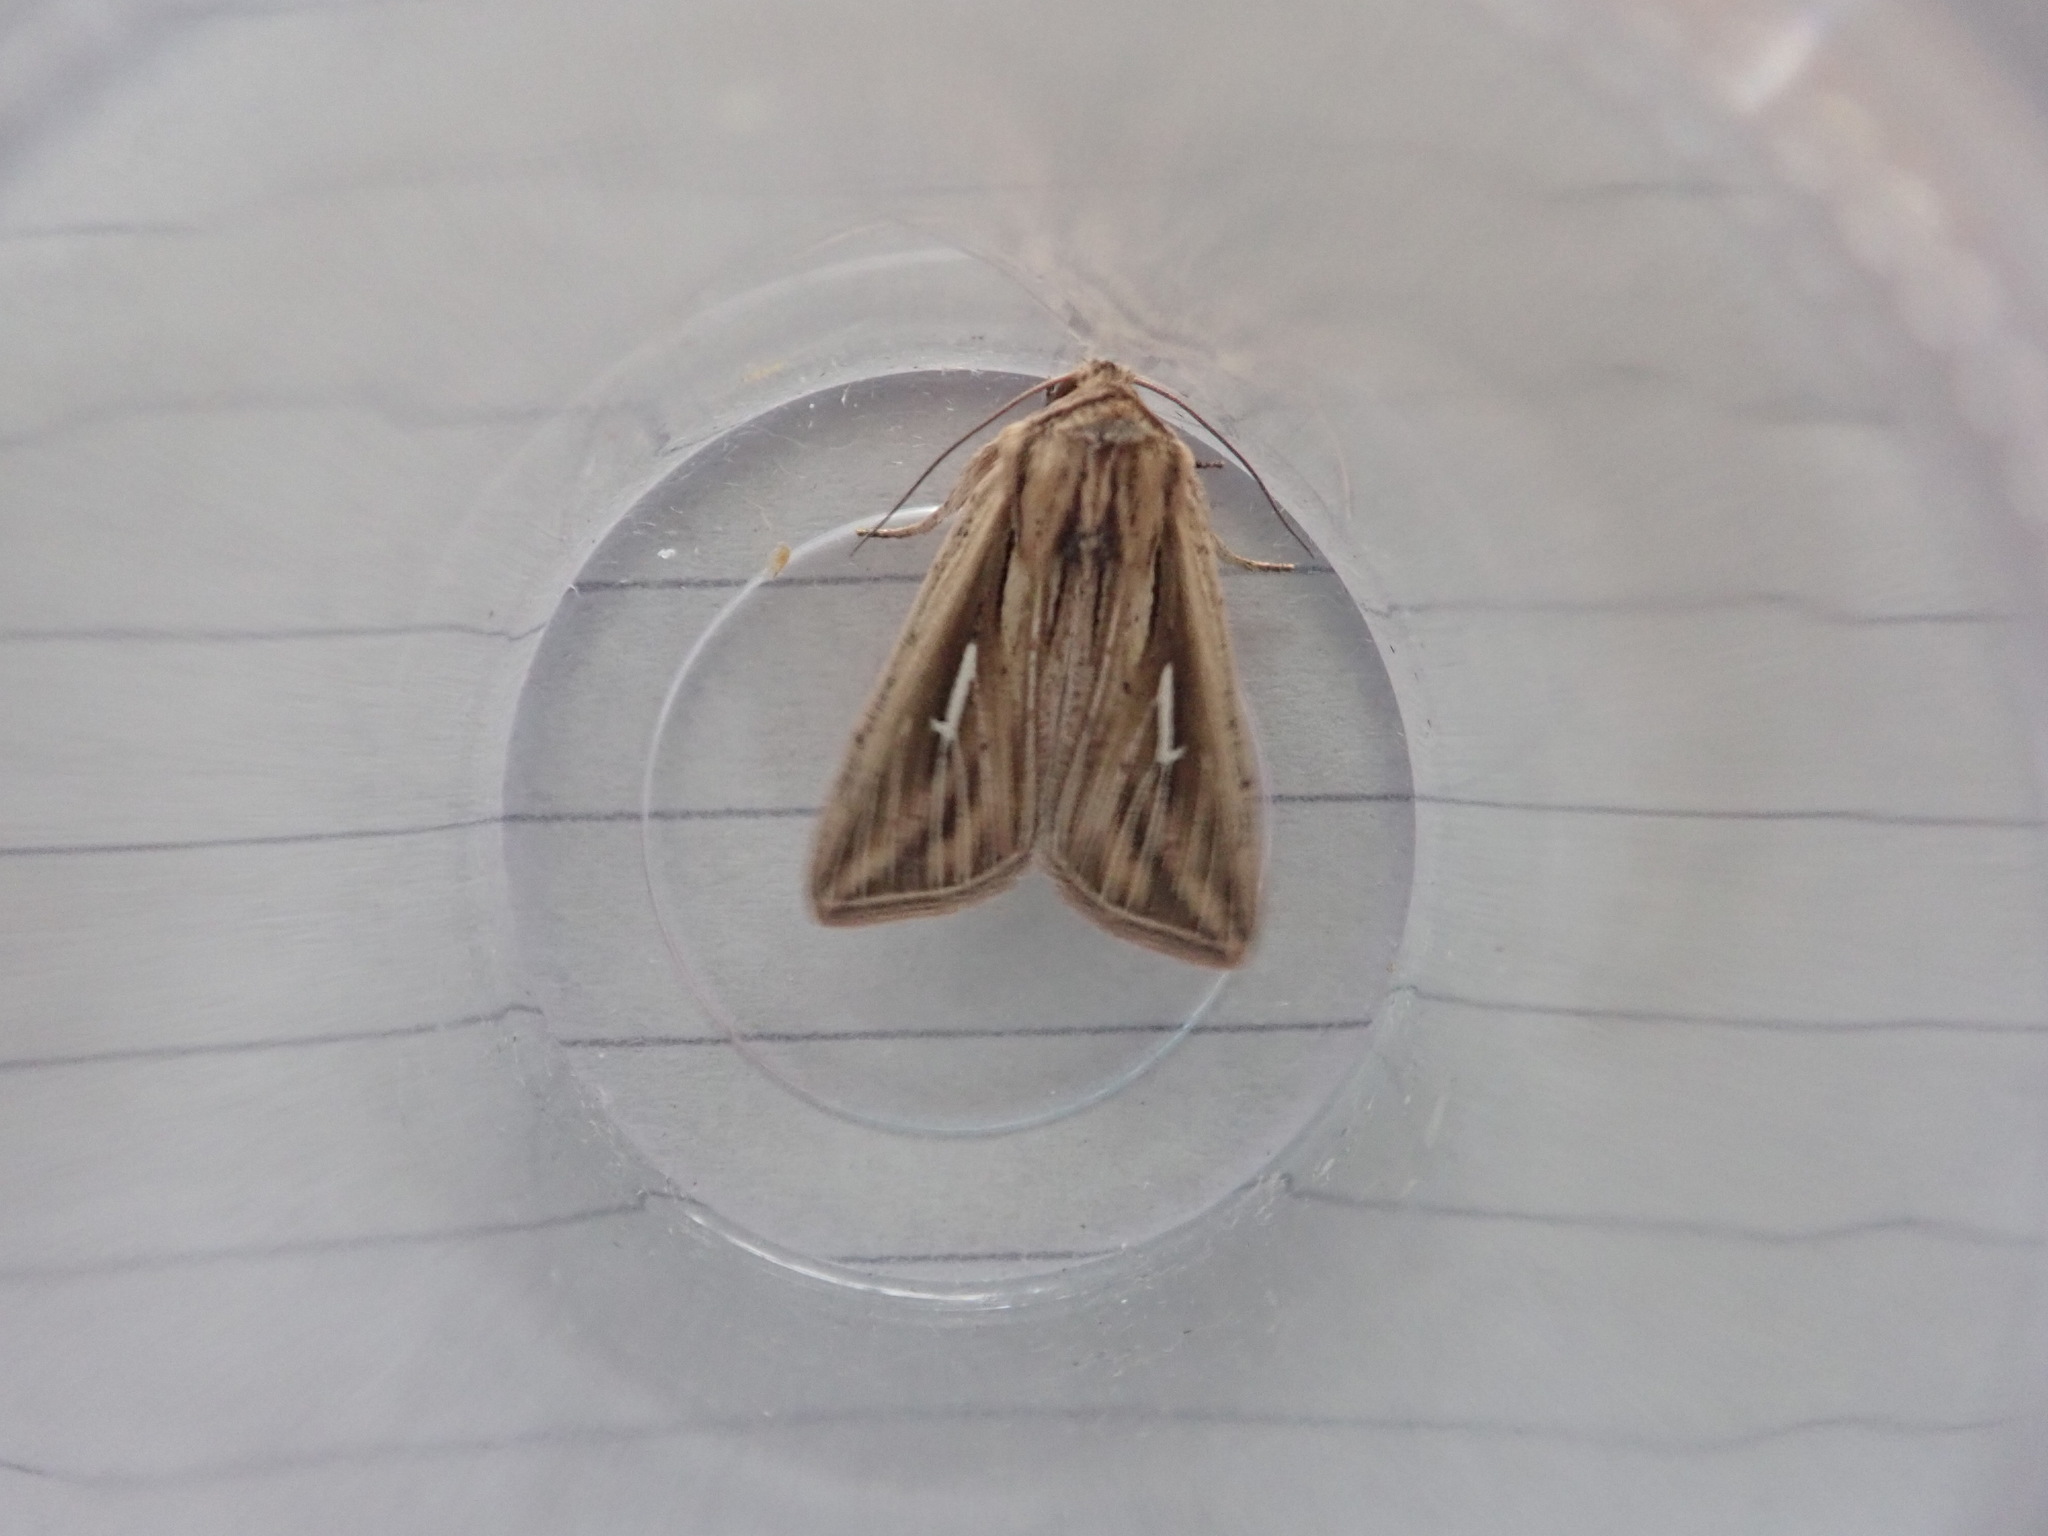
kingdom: Animalia
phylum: Arthropoda
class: Insecta
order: Lepidoptera
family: Noctuidae
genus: Mythimna
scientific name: Mythimna l-album
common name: L-album wainscot
